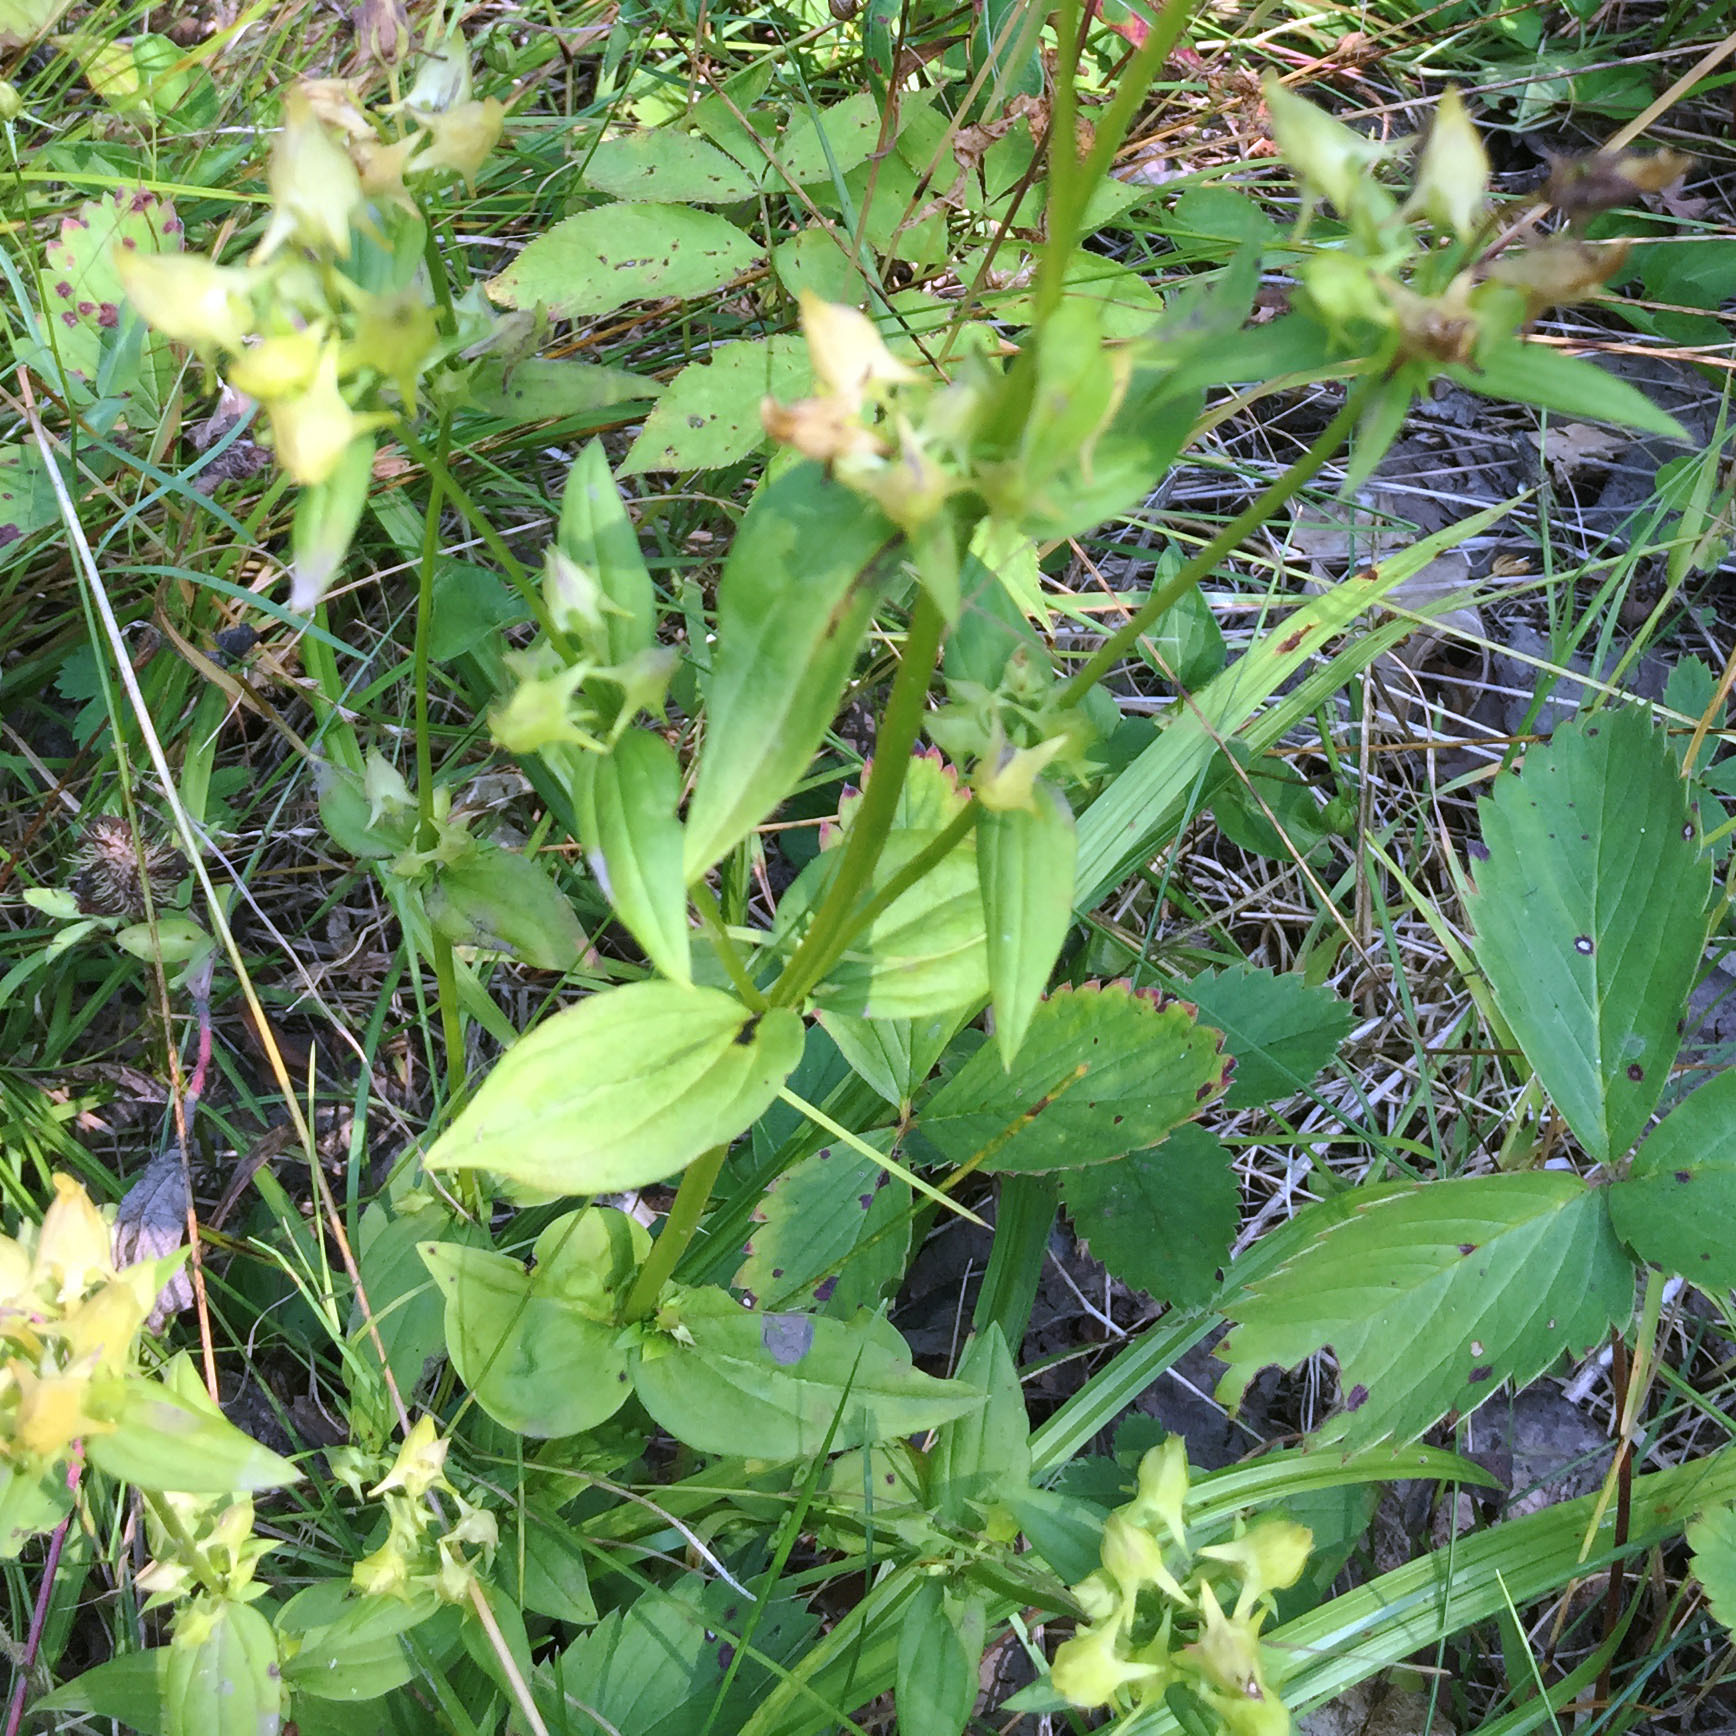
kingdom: Plantae
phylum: Tracheophyta
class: Magnoliopsida
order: Gentianales
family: Gentianaceae
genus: Halenia
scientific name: Halenia deflexa
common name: American spurred gentian
